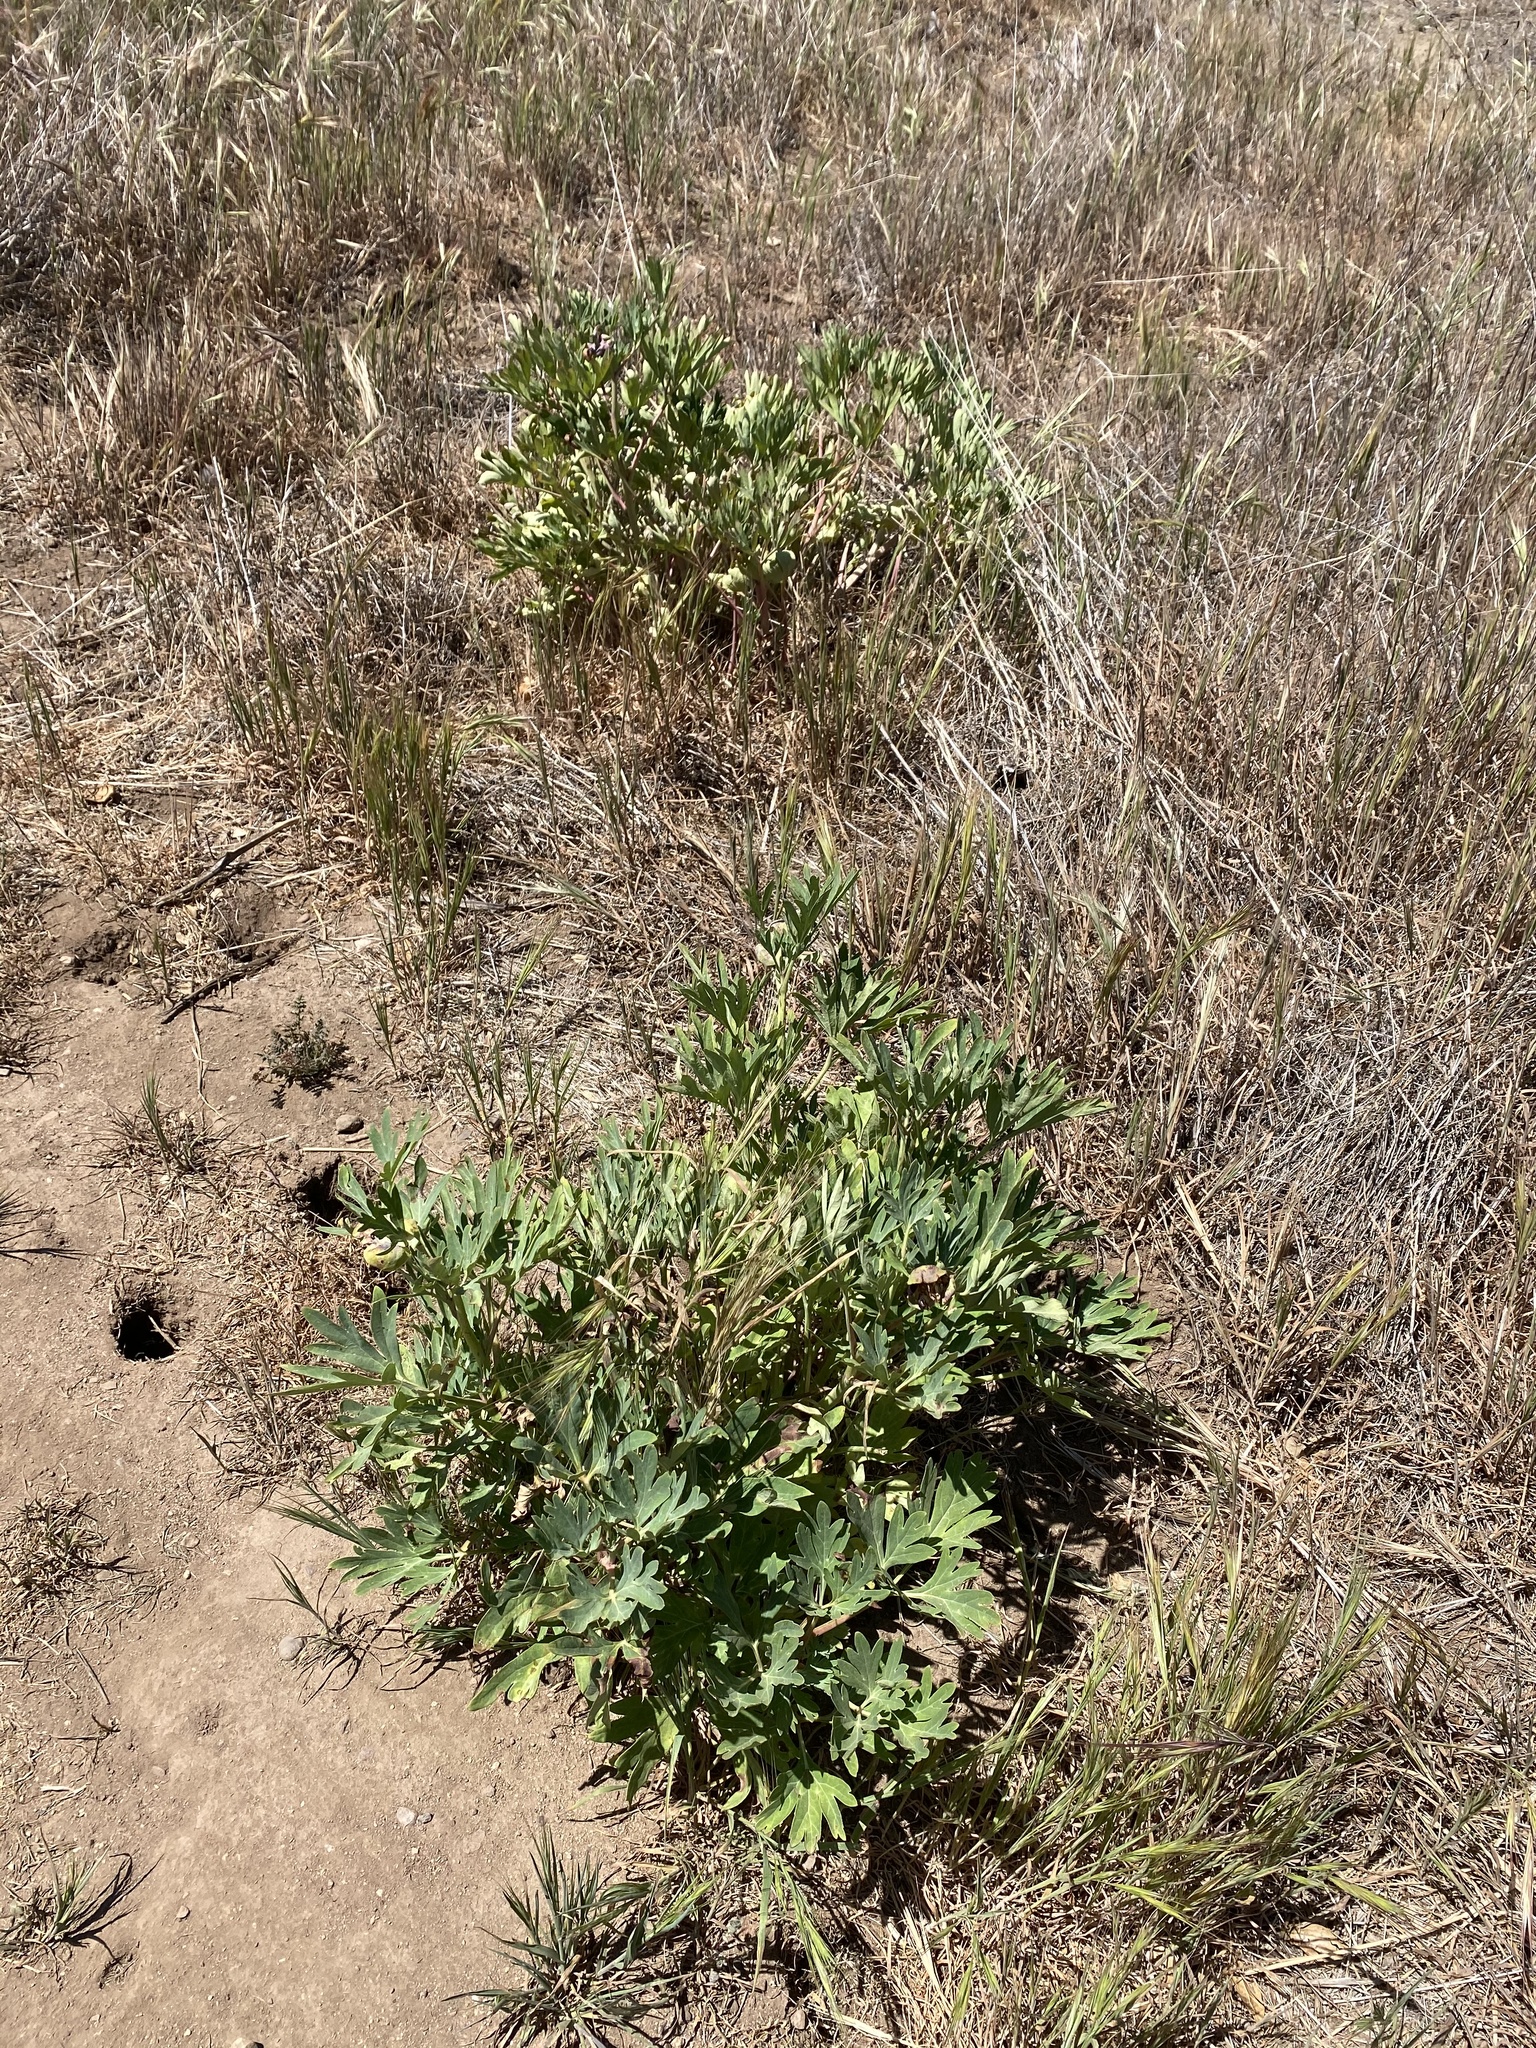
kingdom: Plantae
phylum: Tracheophyta
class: Magnoliopsida
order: Saxifragales
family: Paeoniaceae
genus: Paeonia
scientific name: Paeonia californica
